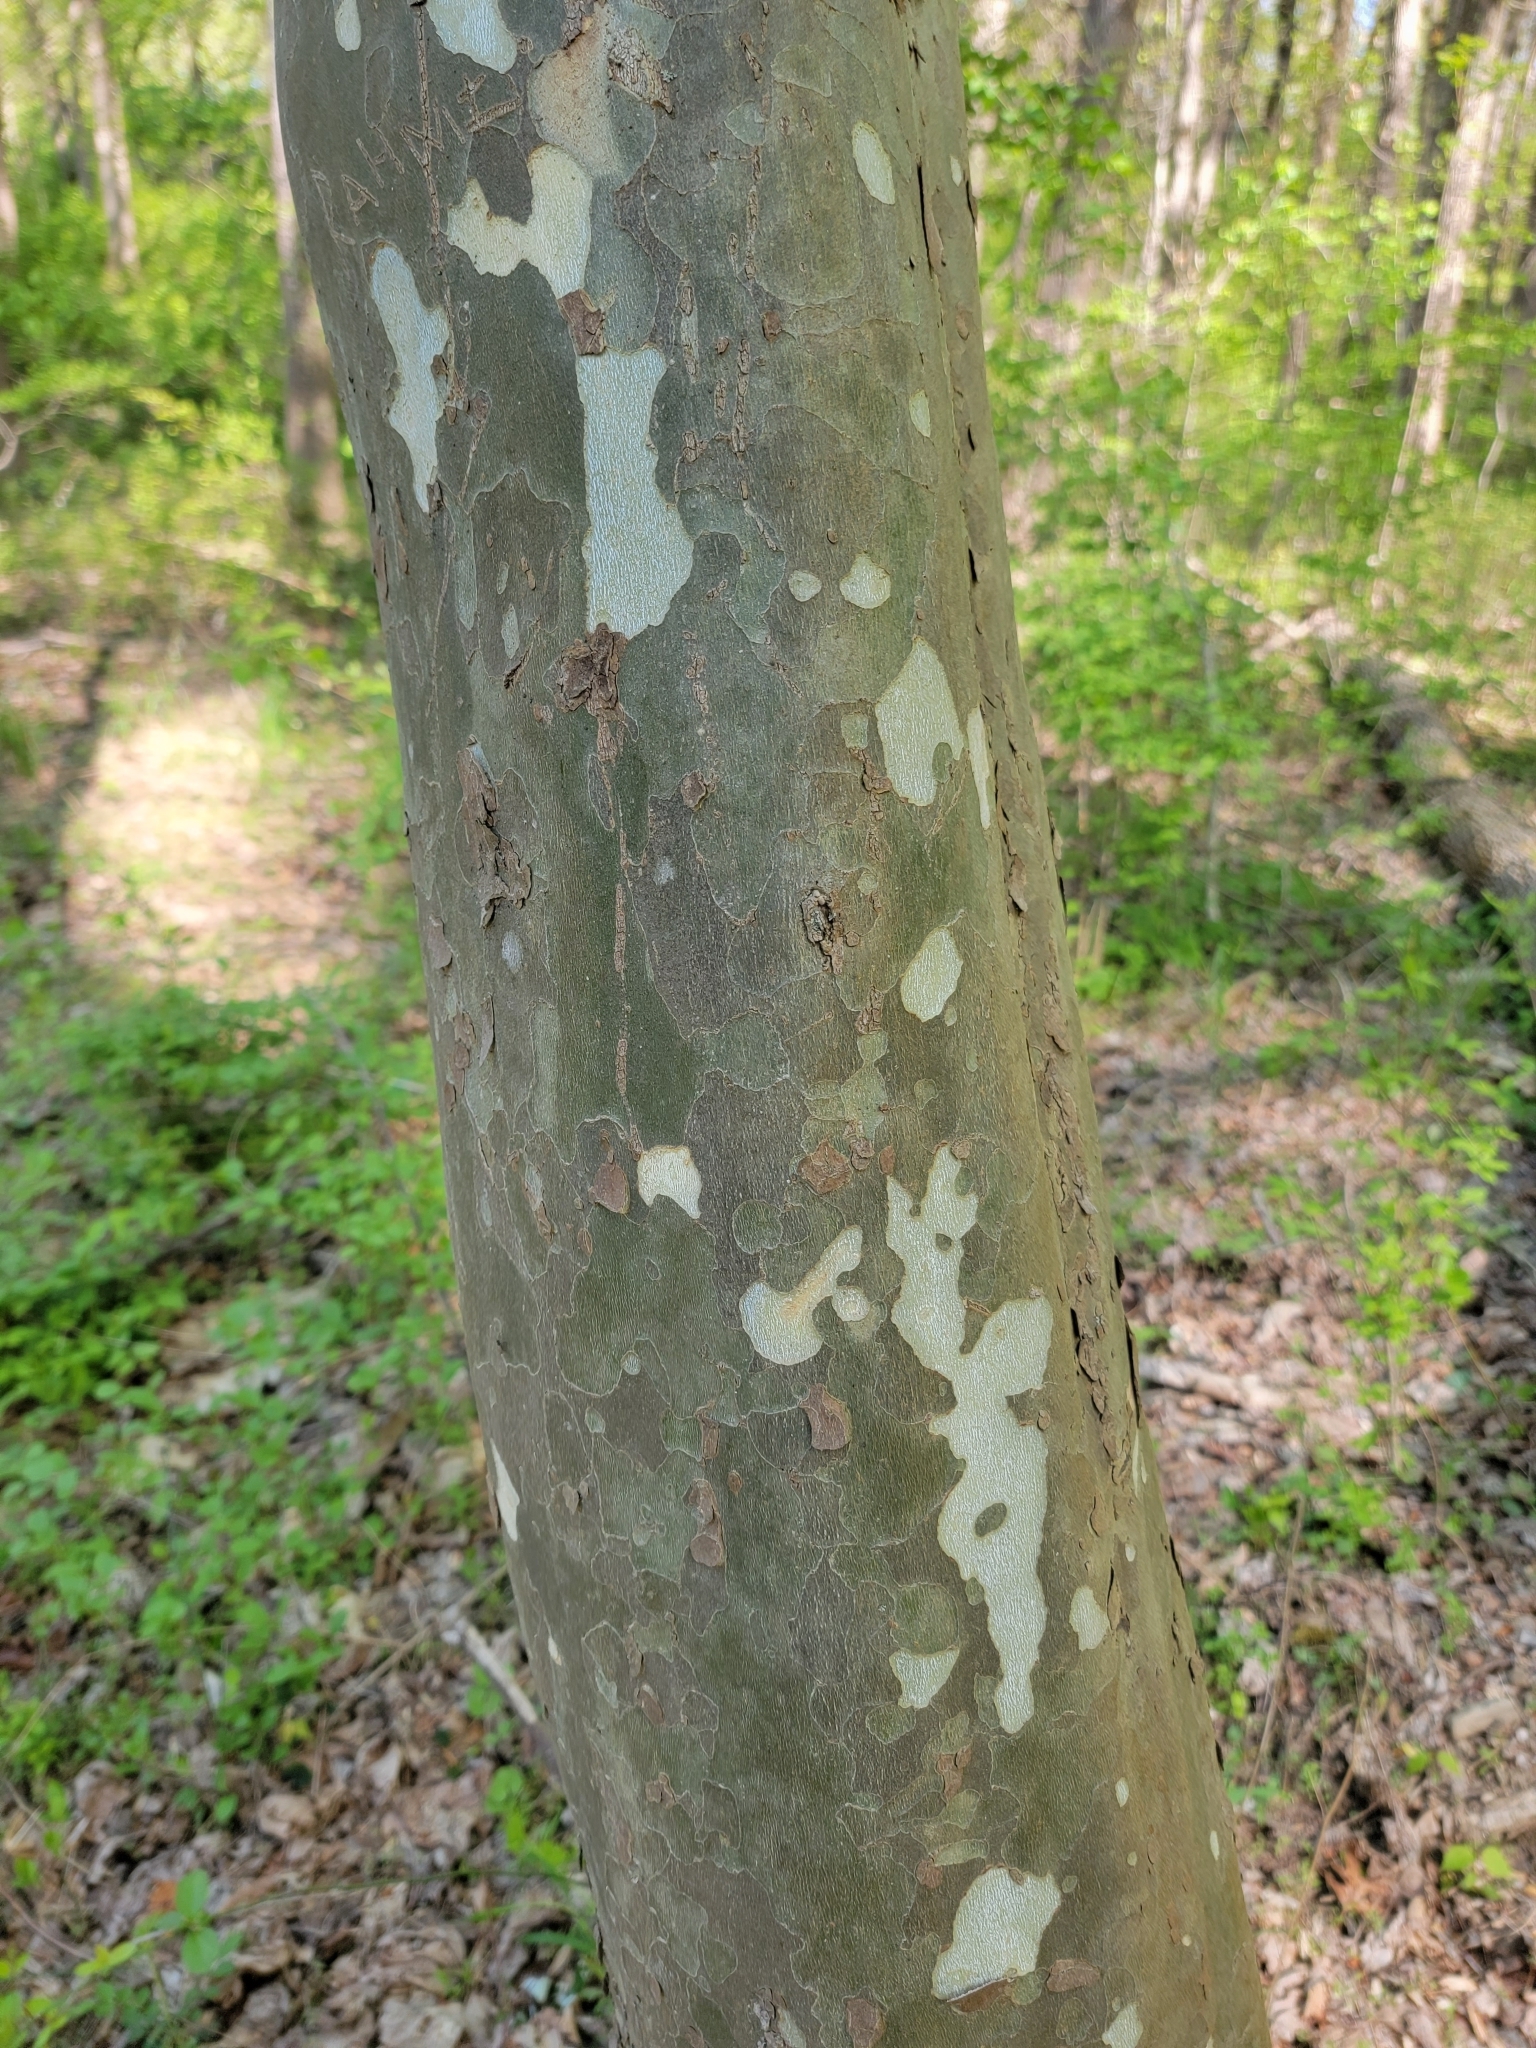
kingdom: Plantae
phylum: Tracheophyta
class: Magnoliopsida
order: Proteales
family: Platanaceae
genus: Platanus
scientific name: Platanus occidentalis
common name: American sycamore
